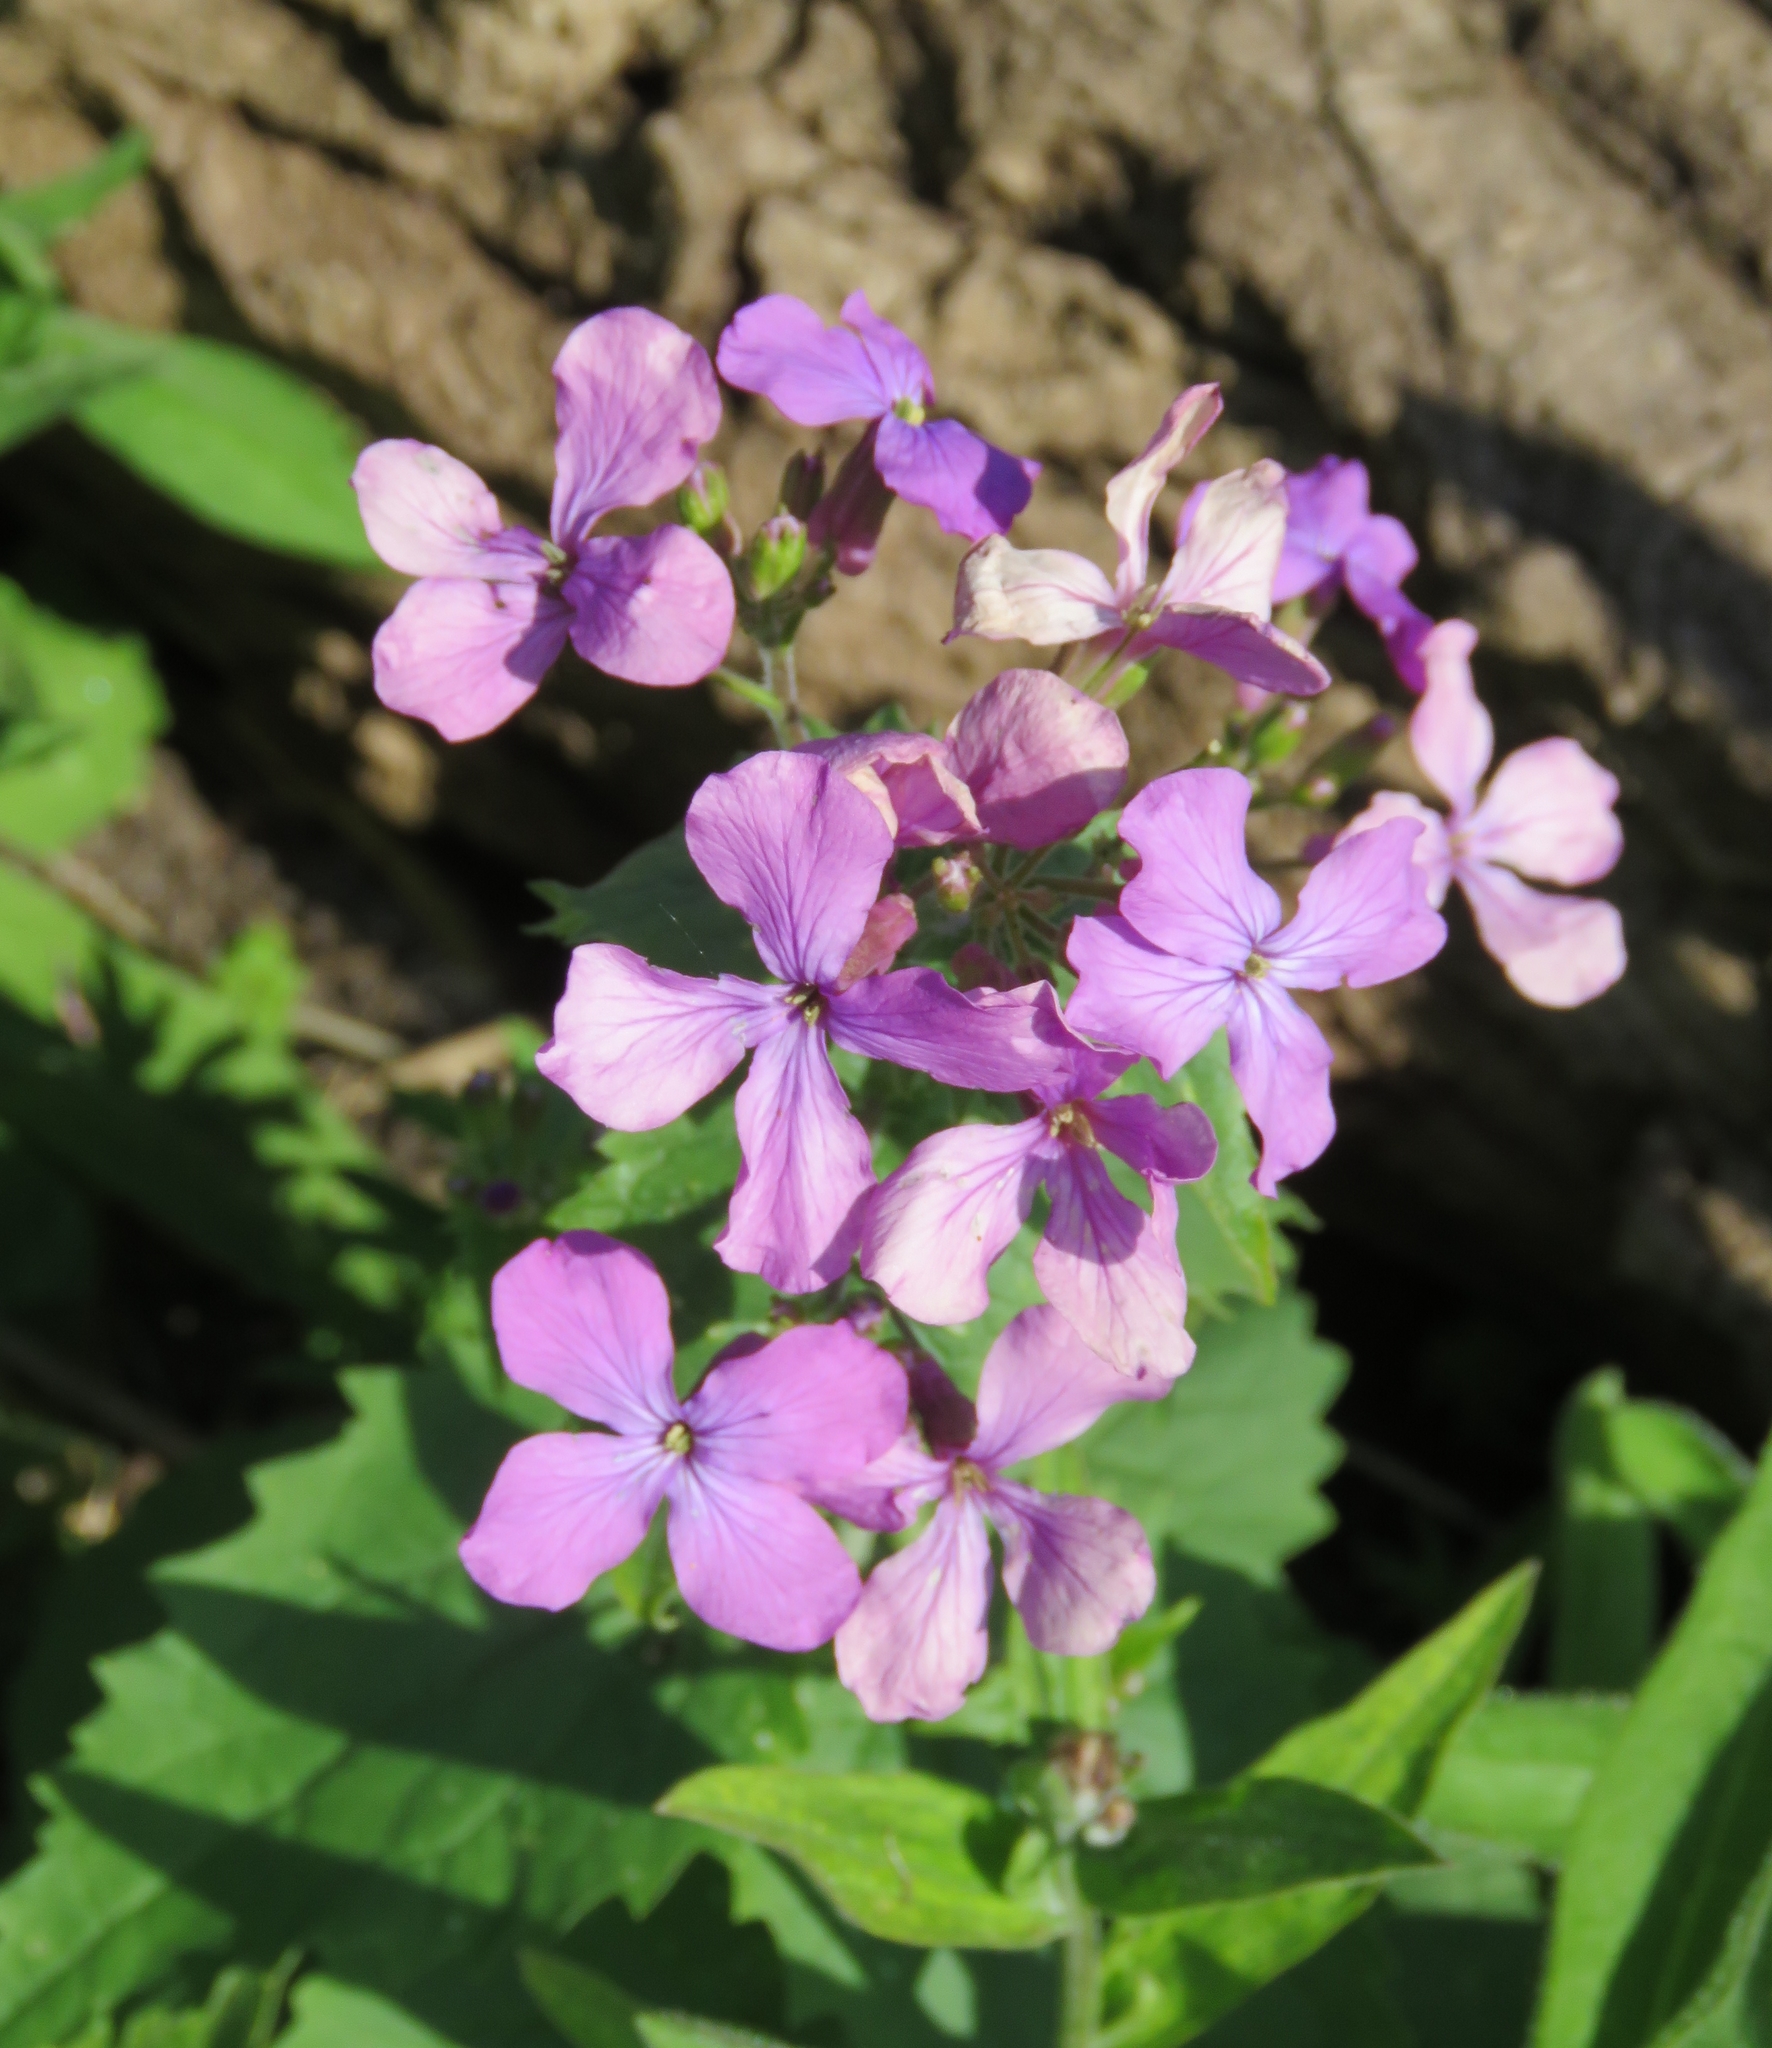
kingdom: Plantae
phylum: Tracheophyta
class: Magnoliopsida
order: Brassicales
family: Brassicaceae
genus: Lunaria
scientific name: Lunaria annua
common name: Honesty
